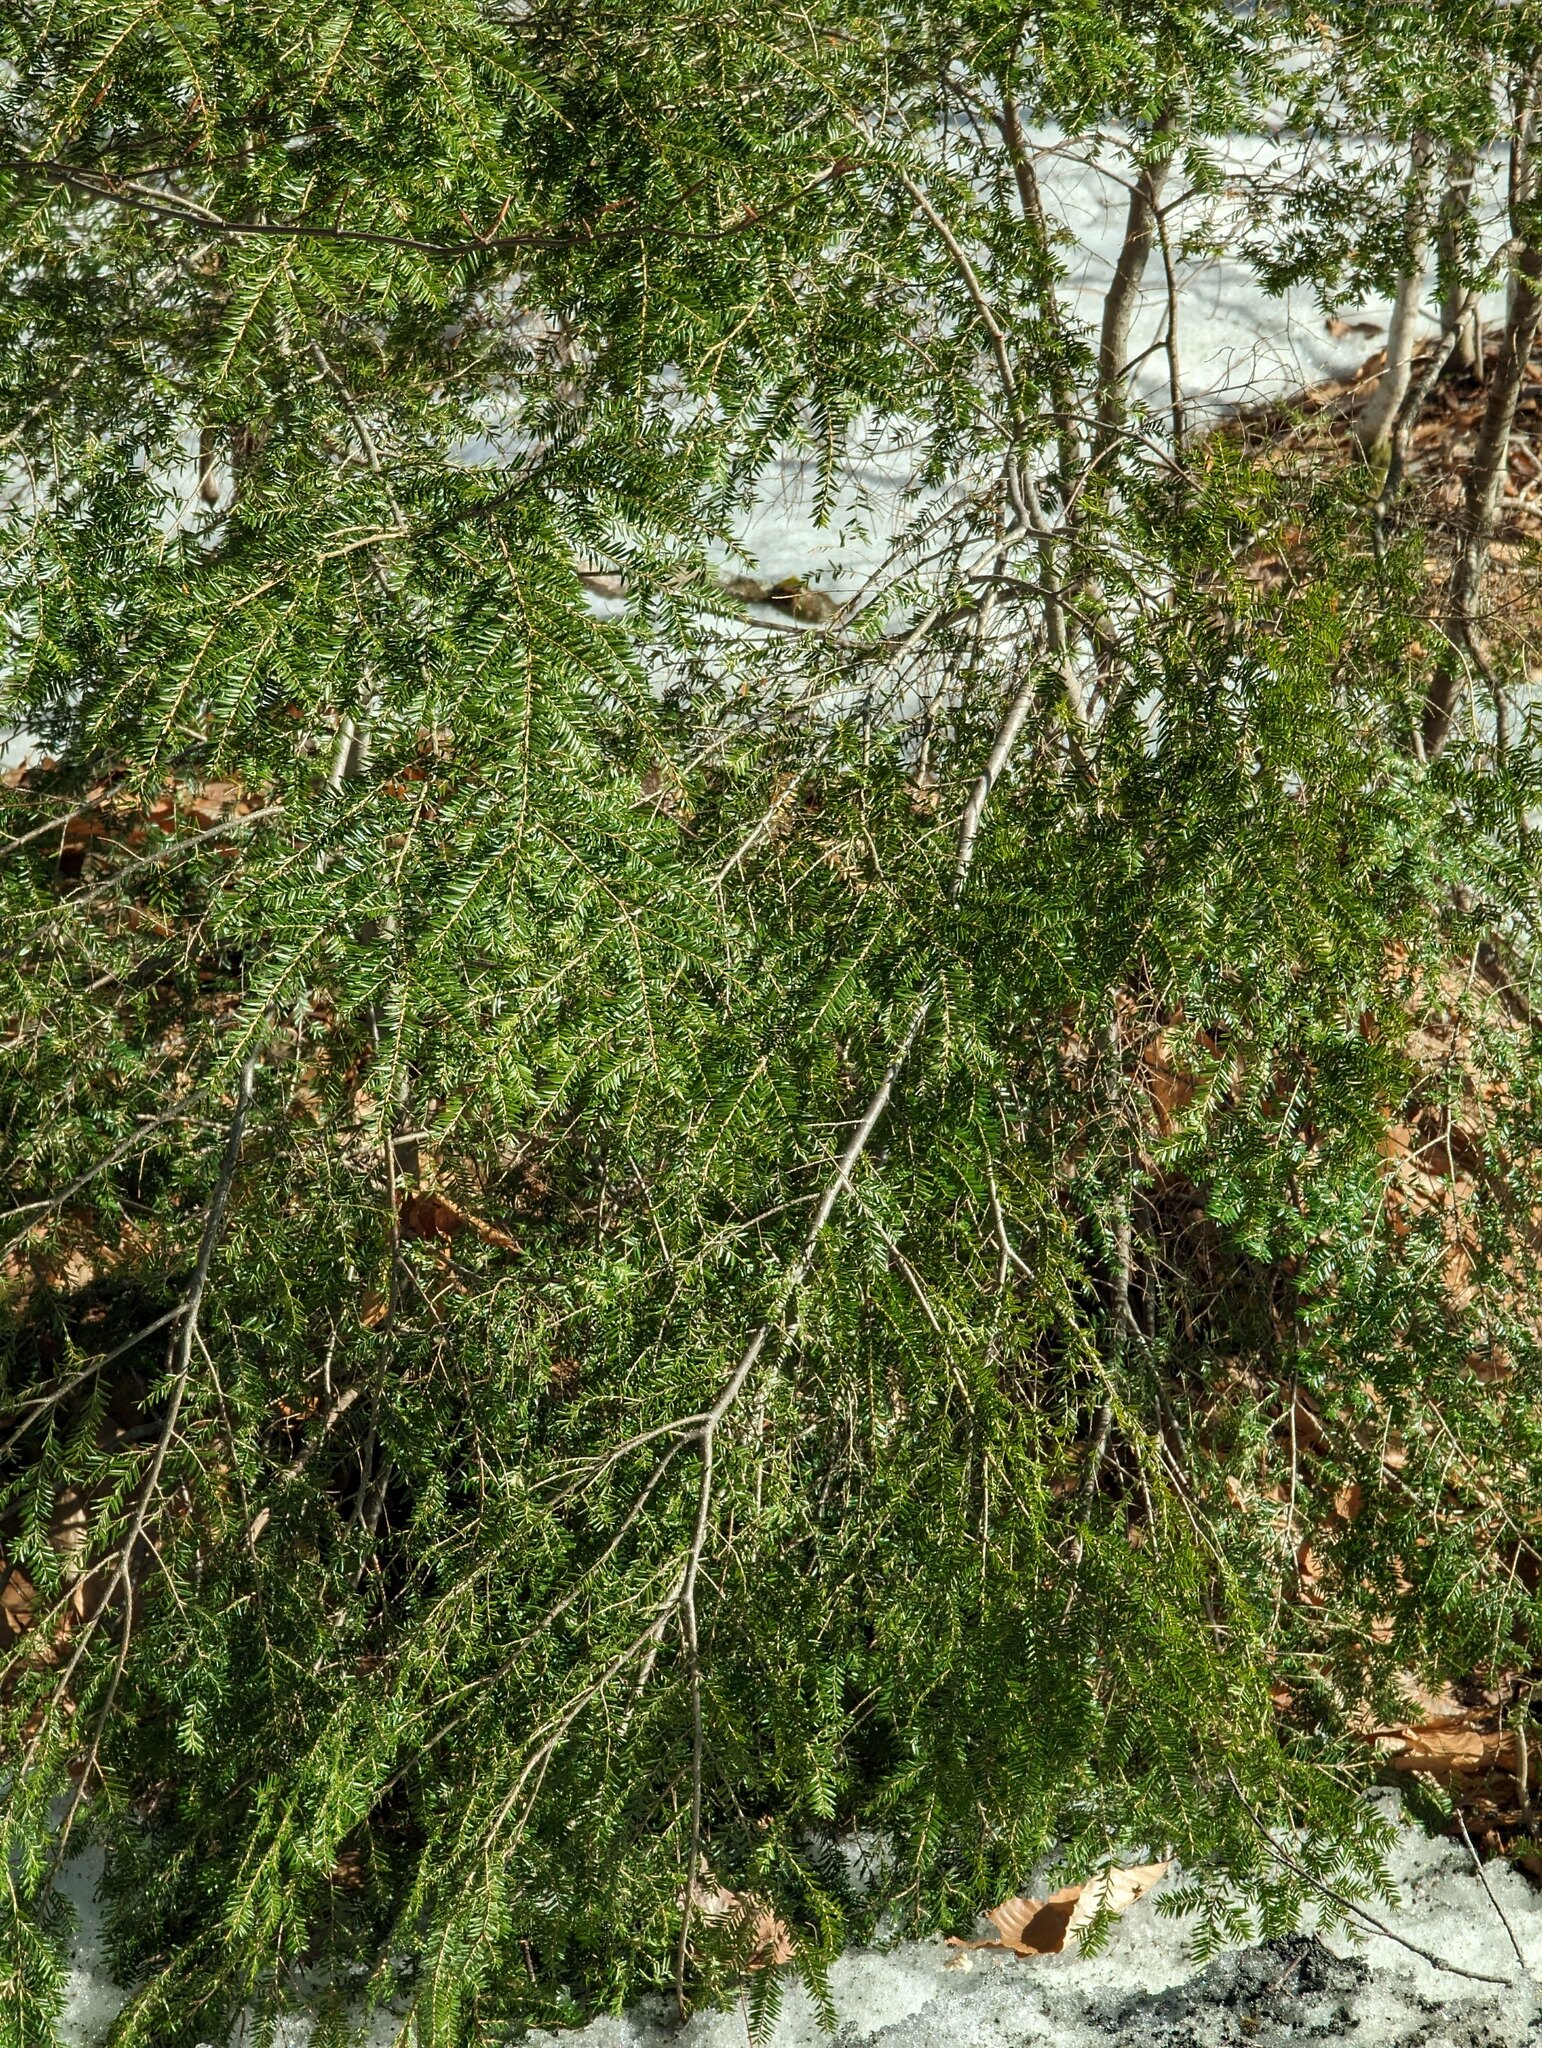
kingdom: Plantae
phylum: Tracheophyta
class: Pinopsida
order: Pinales
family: Pinaceae
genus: Tsuga
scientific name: Tsuga canadensis
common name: Eastern hemlock
